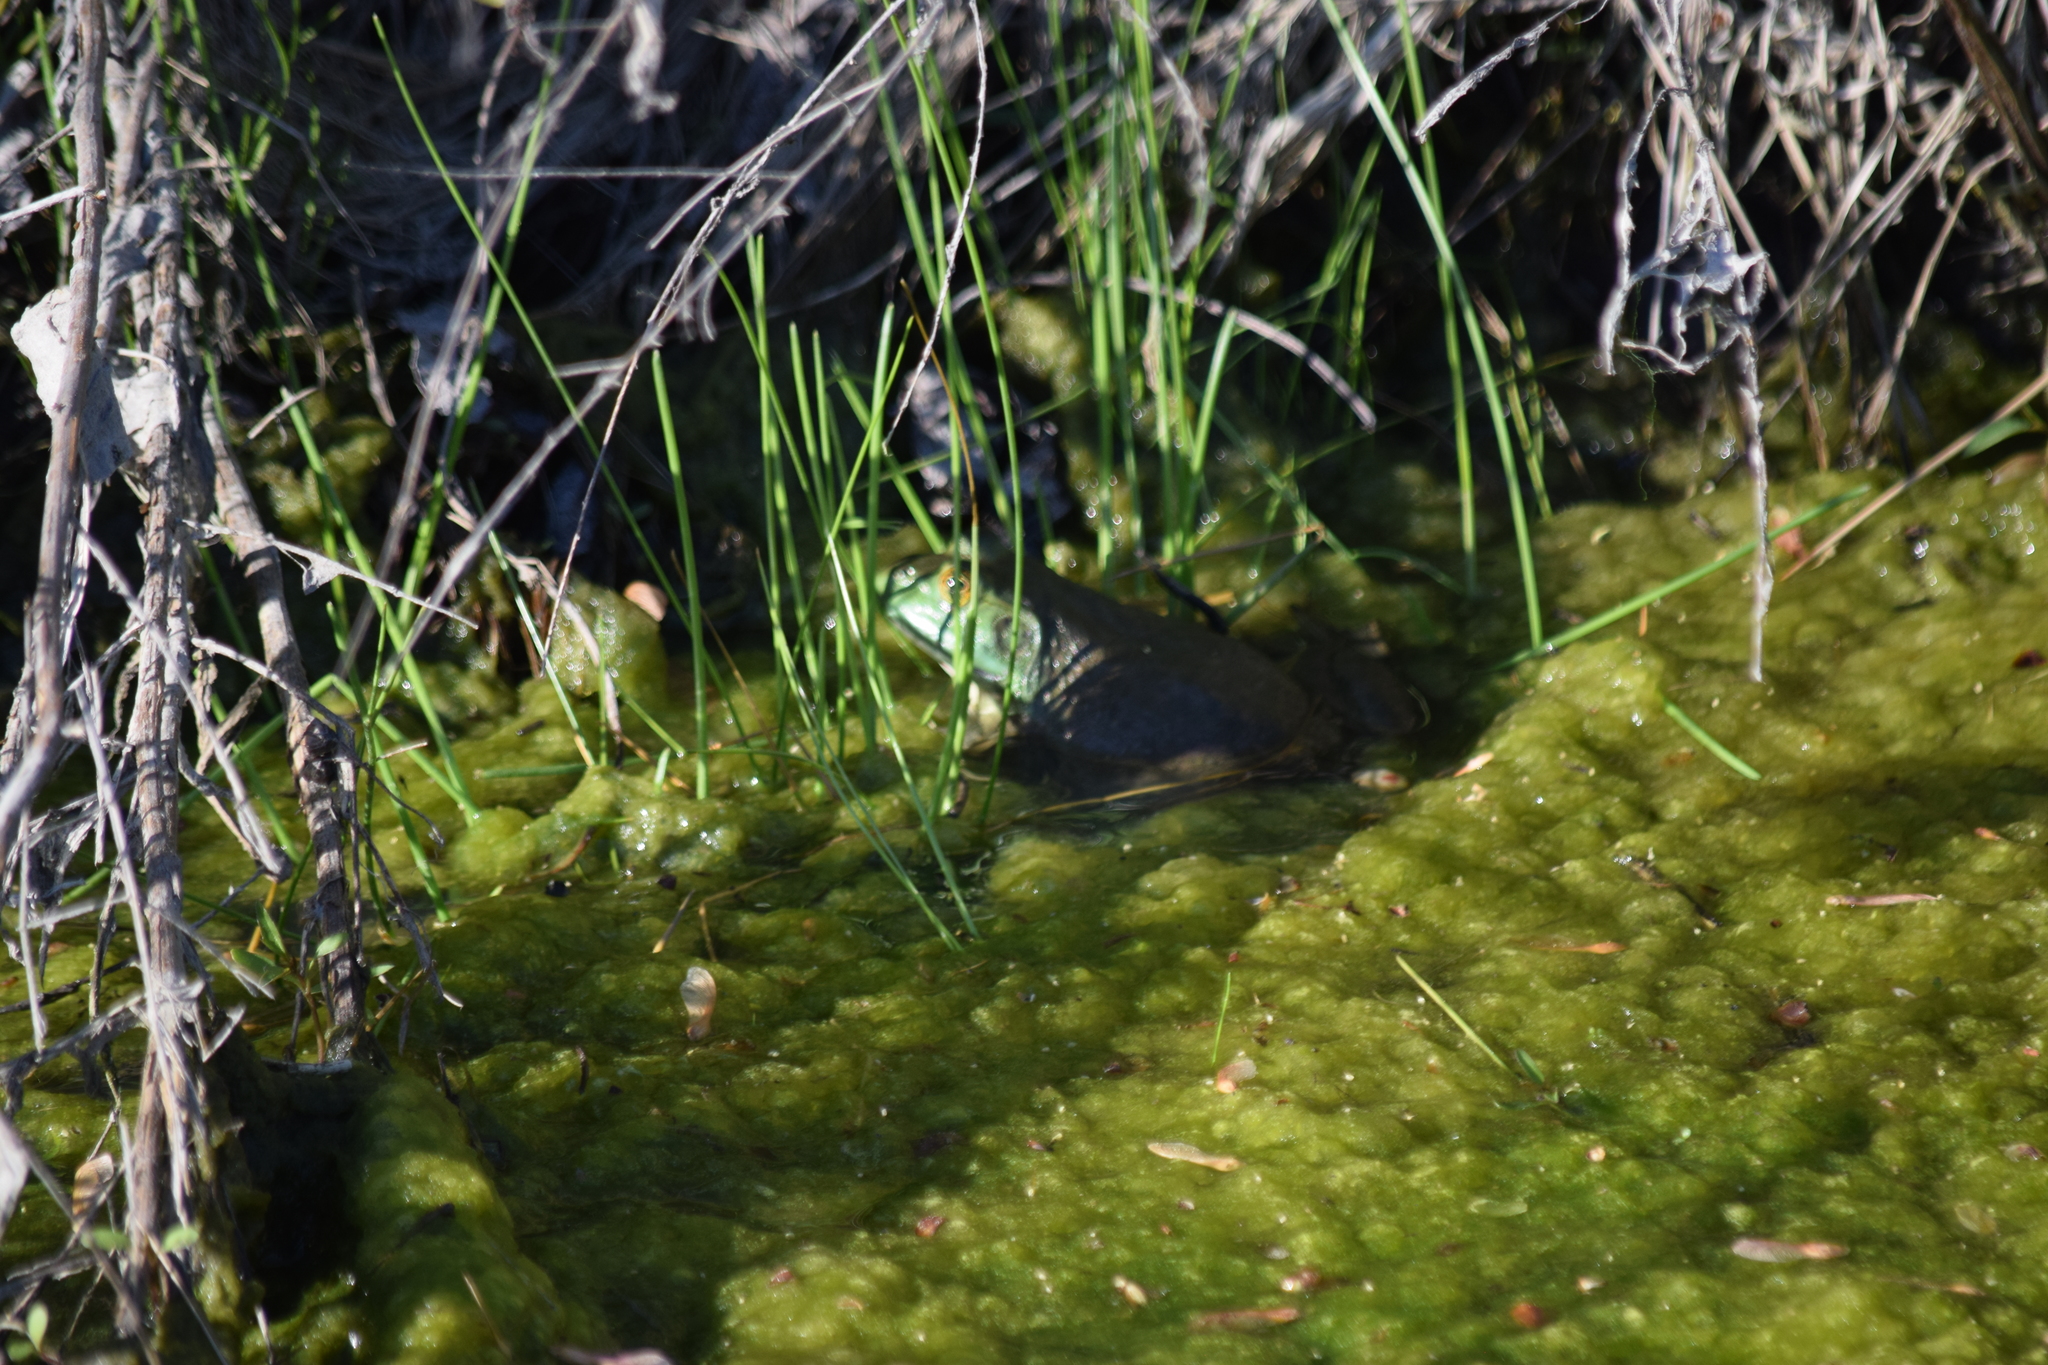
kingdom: Animalia
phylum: Chordata
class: Amphibia
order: Anura
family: Ranidae
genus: Lithobates
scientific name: Lithobates catesbeianus
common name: American bullfrog
